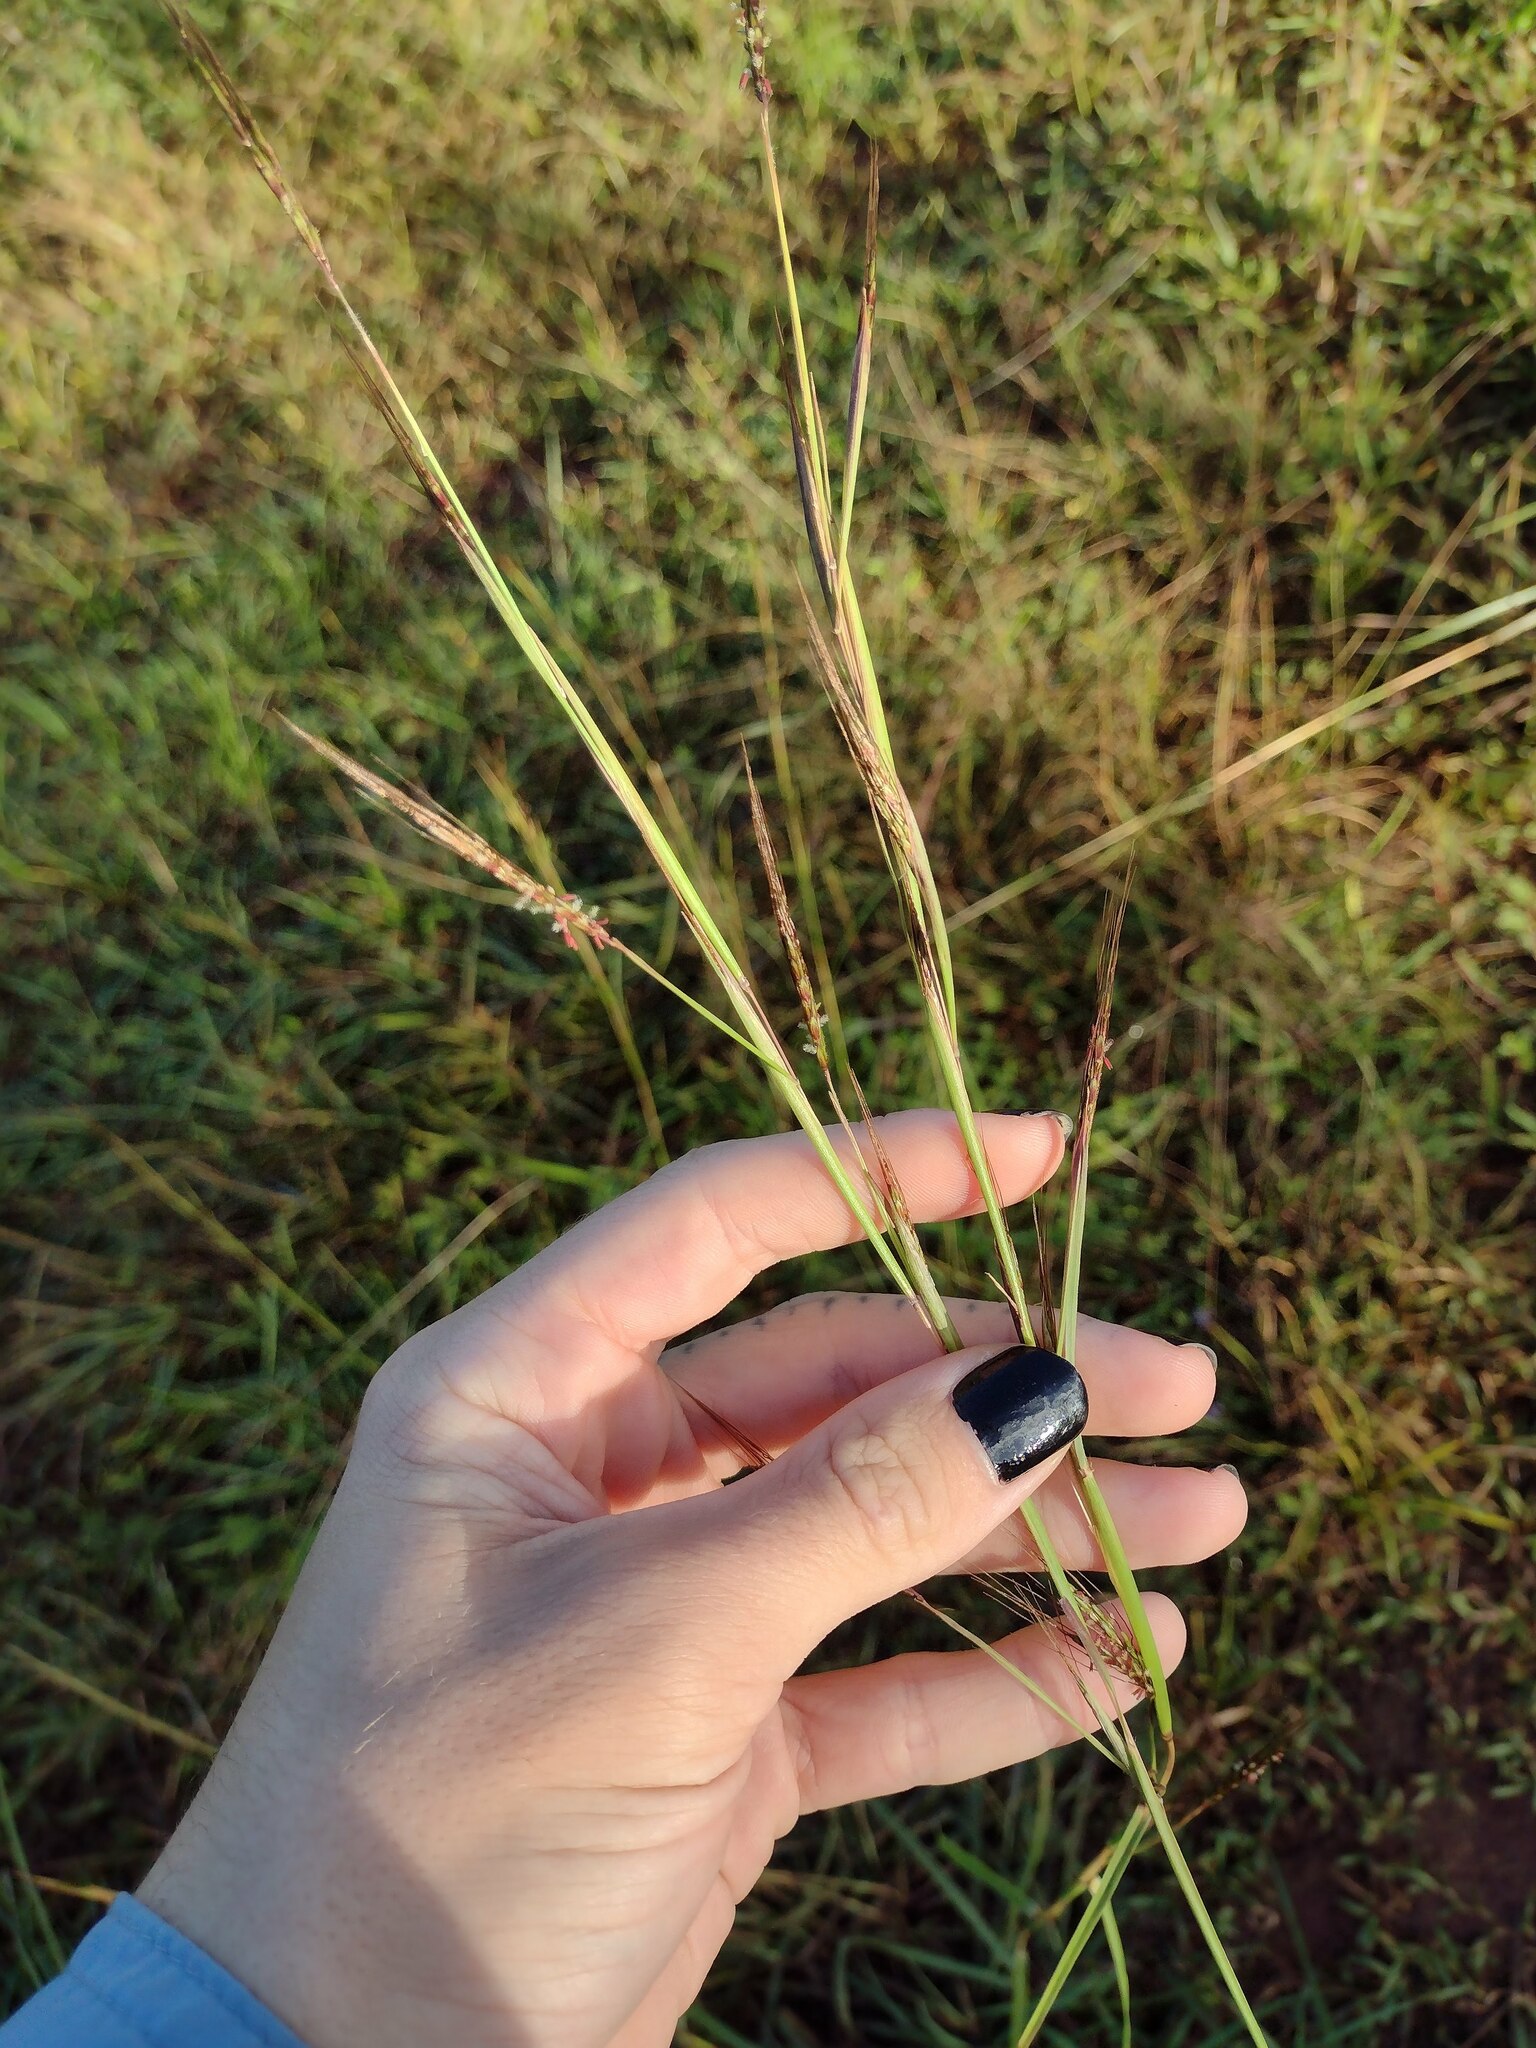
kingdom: Plantae
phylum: Tracheophyta
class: Liliopsida
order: Poales
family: Poaceae
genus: Hyparrhenia
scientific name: Hyparrhenia rufa
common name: Jaraguagrass
